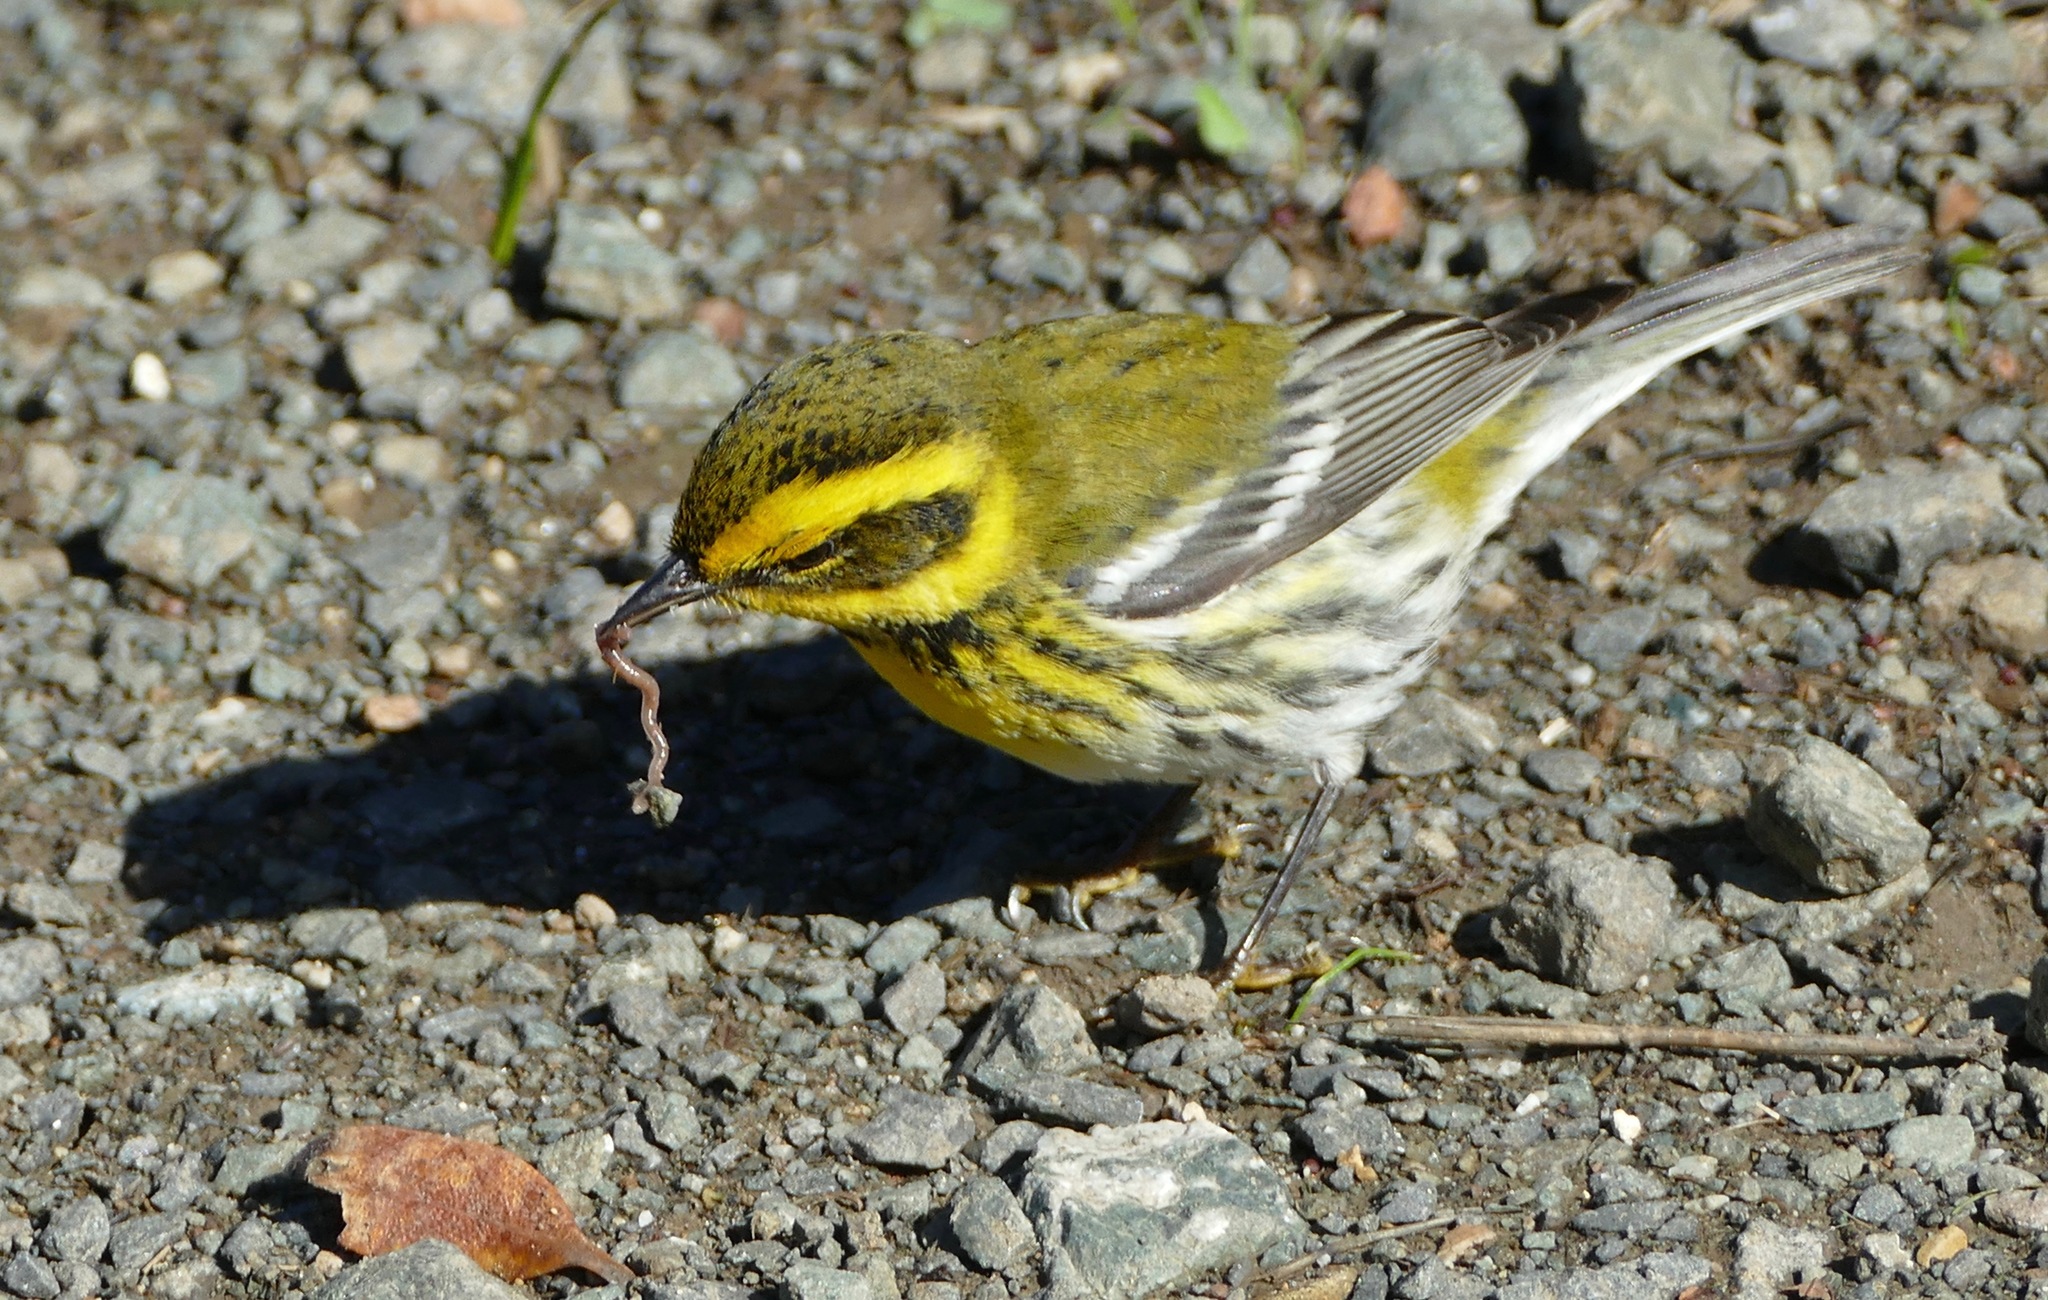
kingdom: Animalia
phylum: Chordata
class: Aves
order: Passeriformes
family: Parulidae
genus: Setophaga
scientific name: Setophaga townsendi
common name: Townsend's warbler
